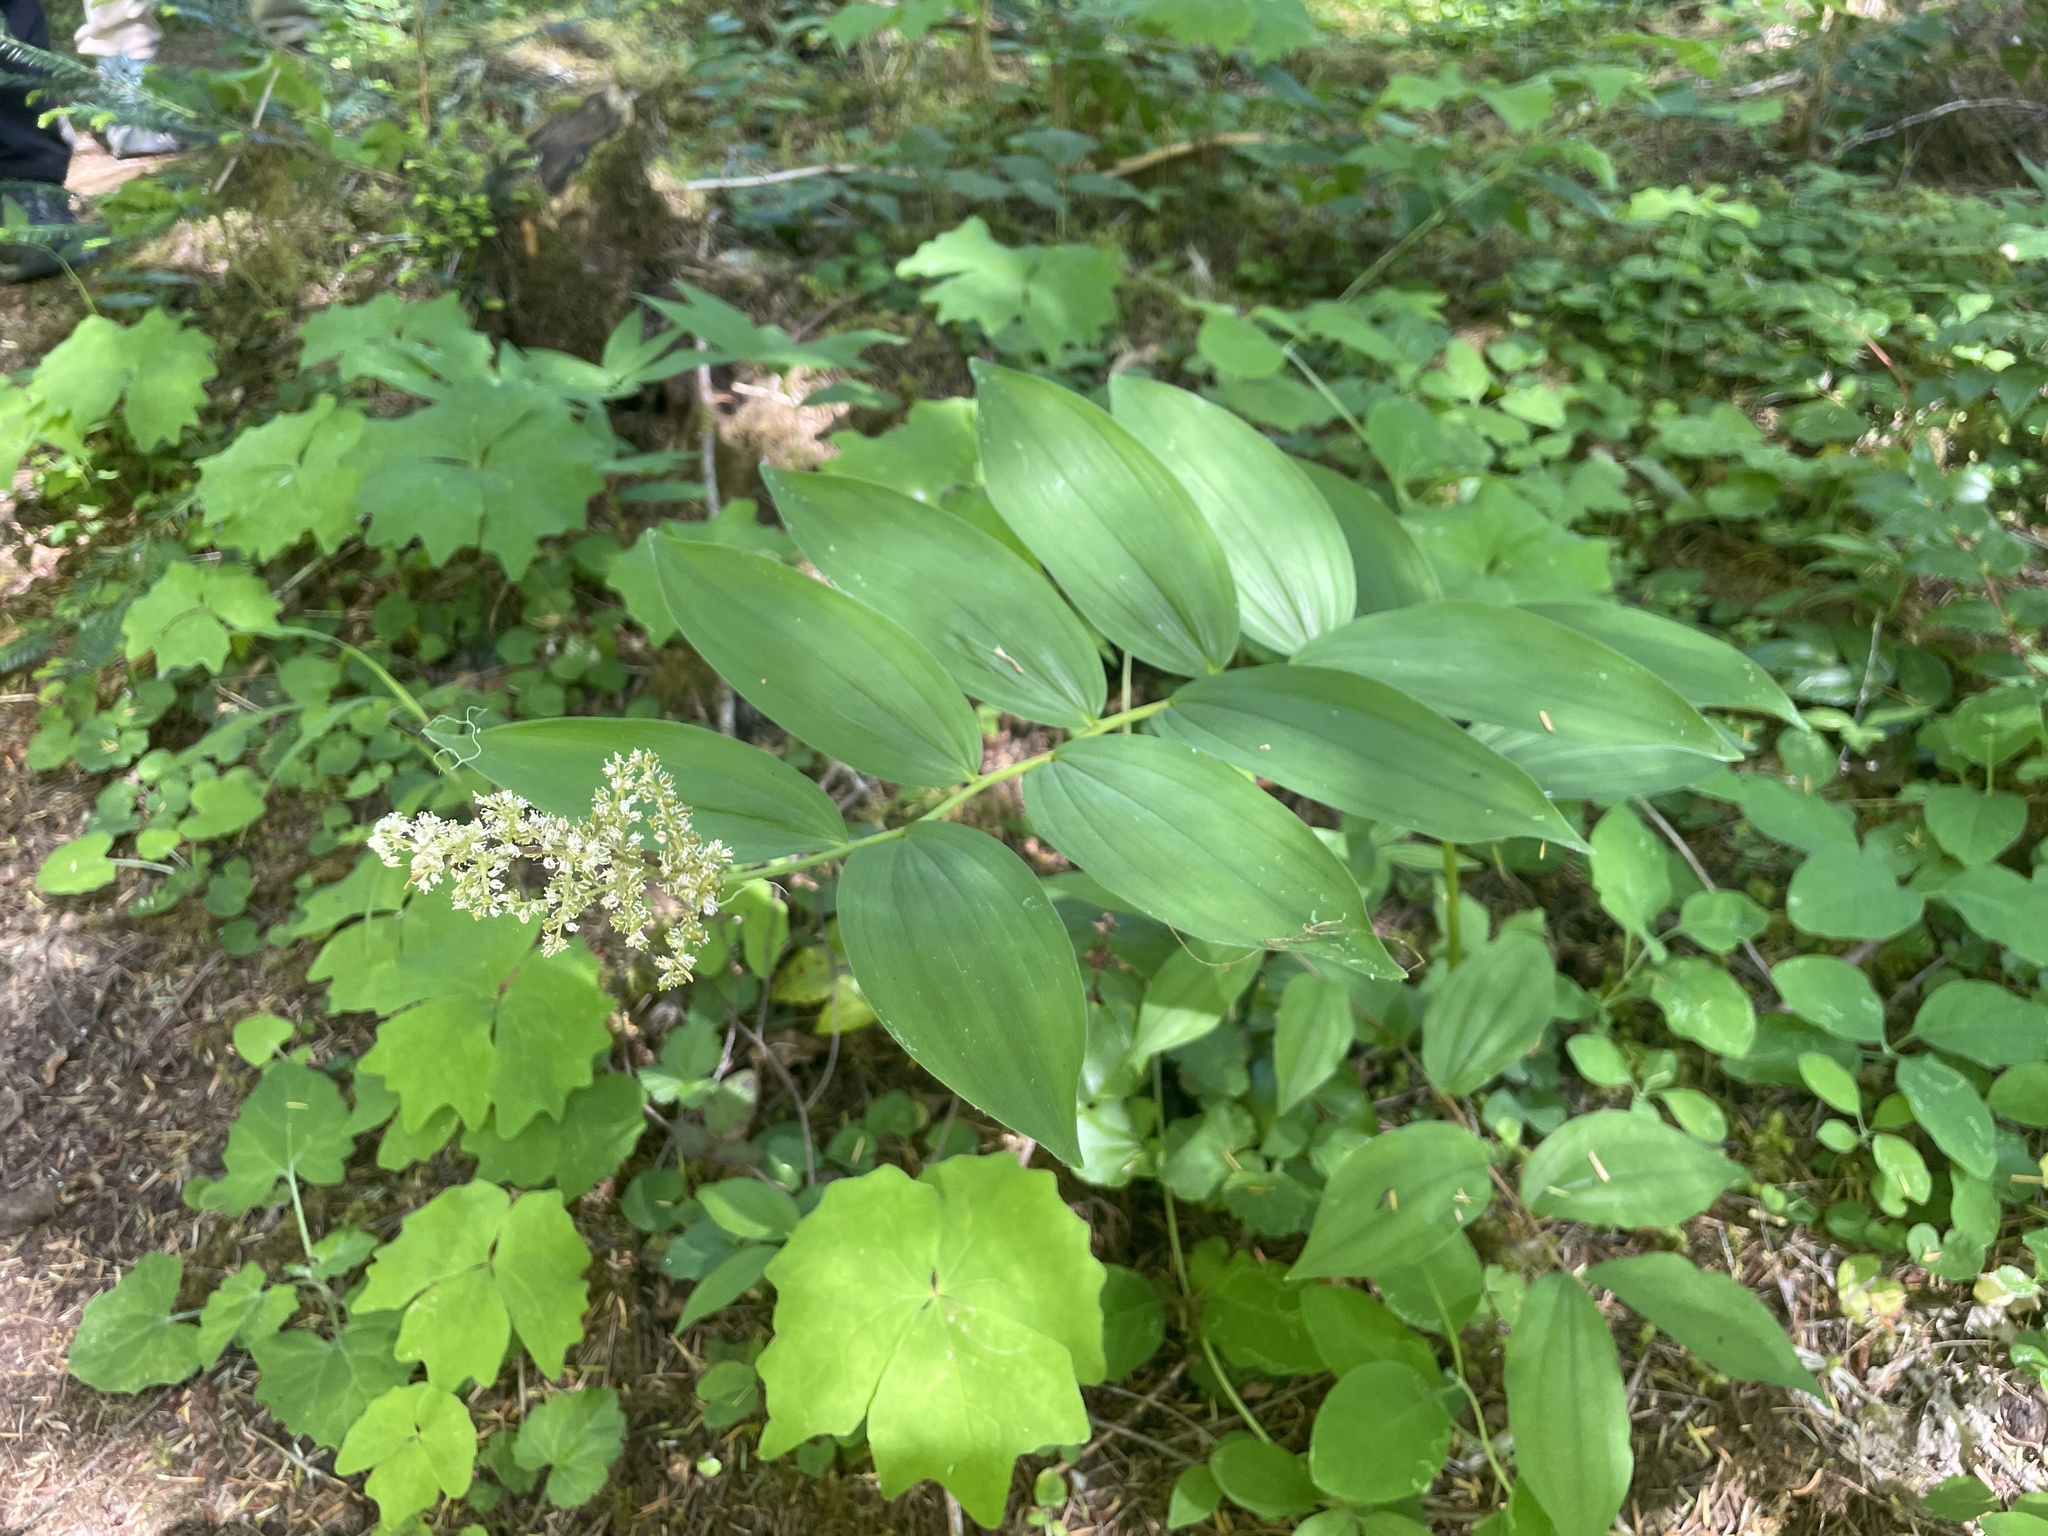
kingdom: Plantae
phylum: Tracheophyta
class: Liliopsida
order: Asparagales
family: Asparagaceae
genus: Maianthemum
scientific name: Maianthemum racemosum
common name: False spikenard
